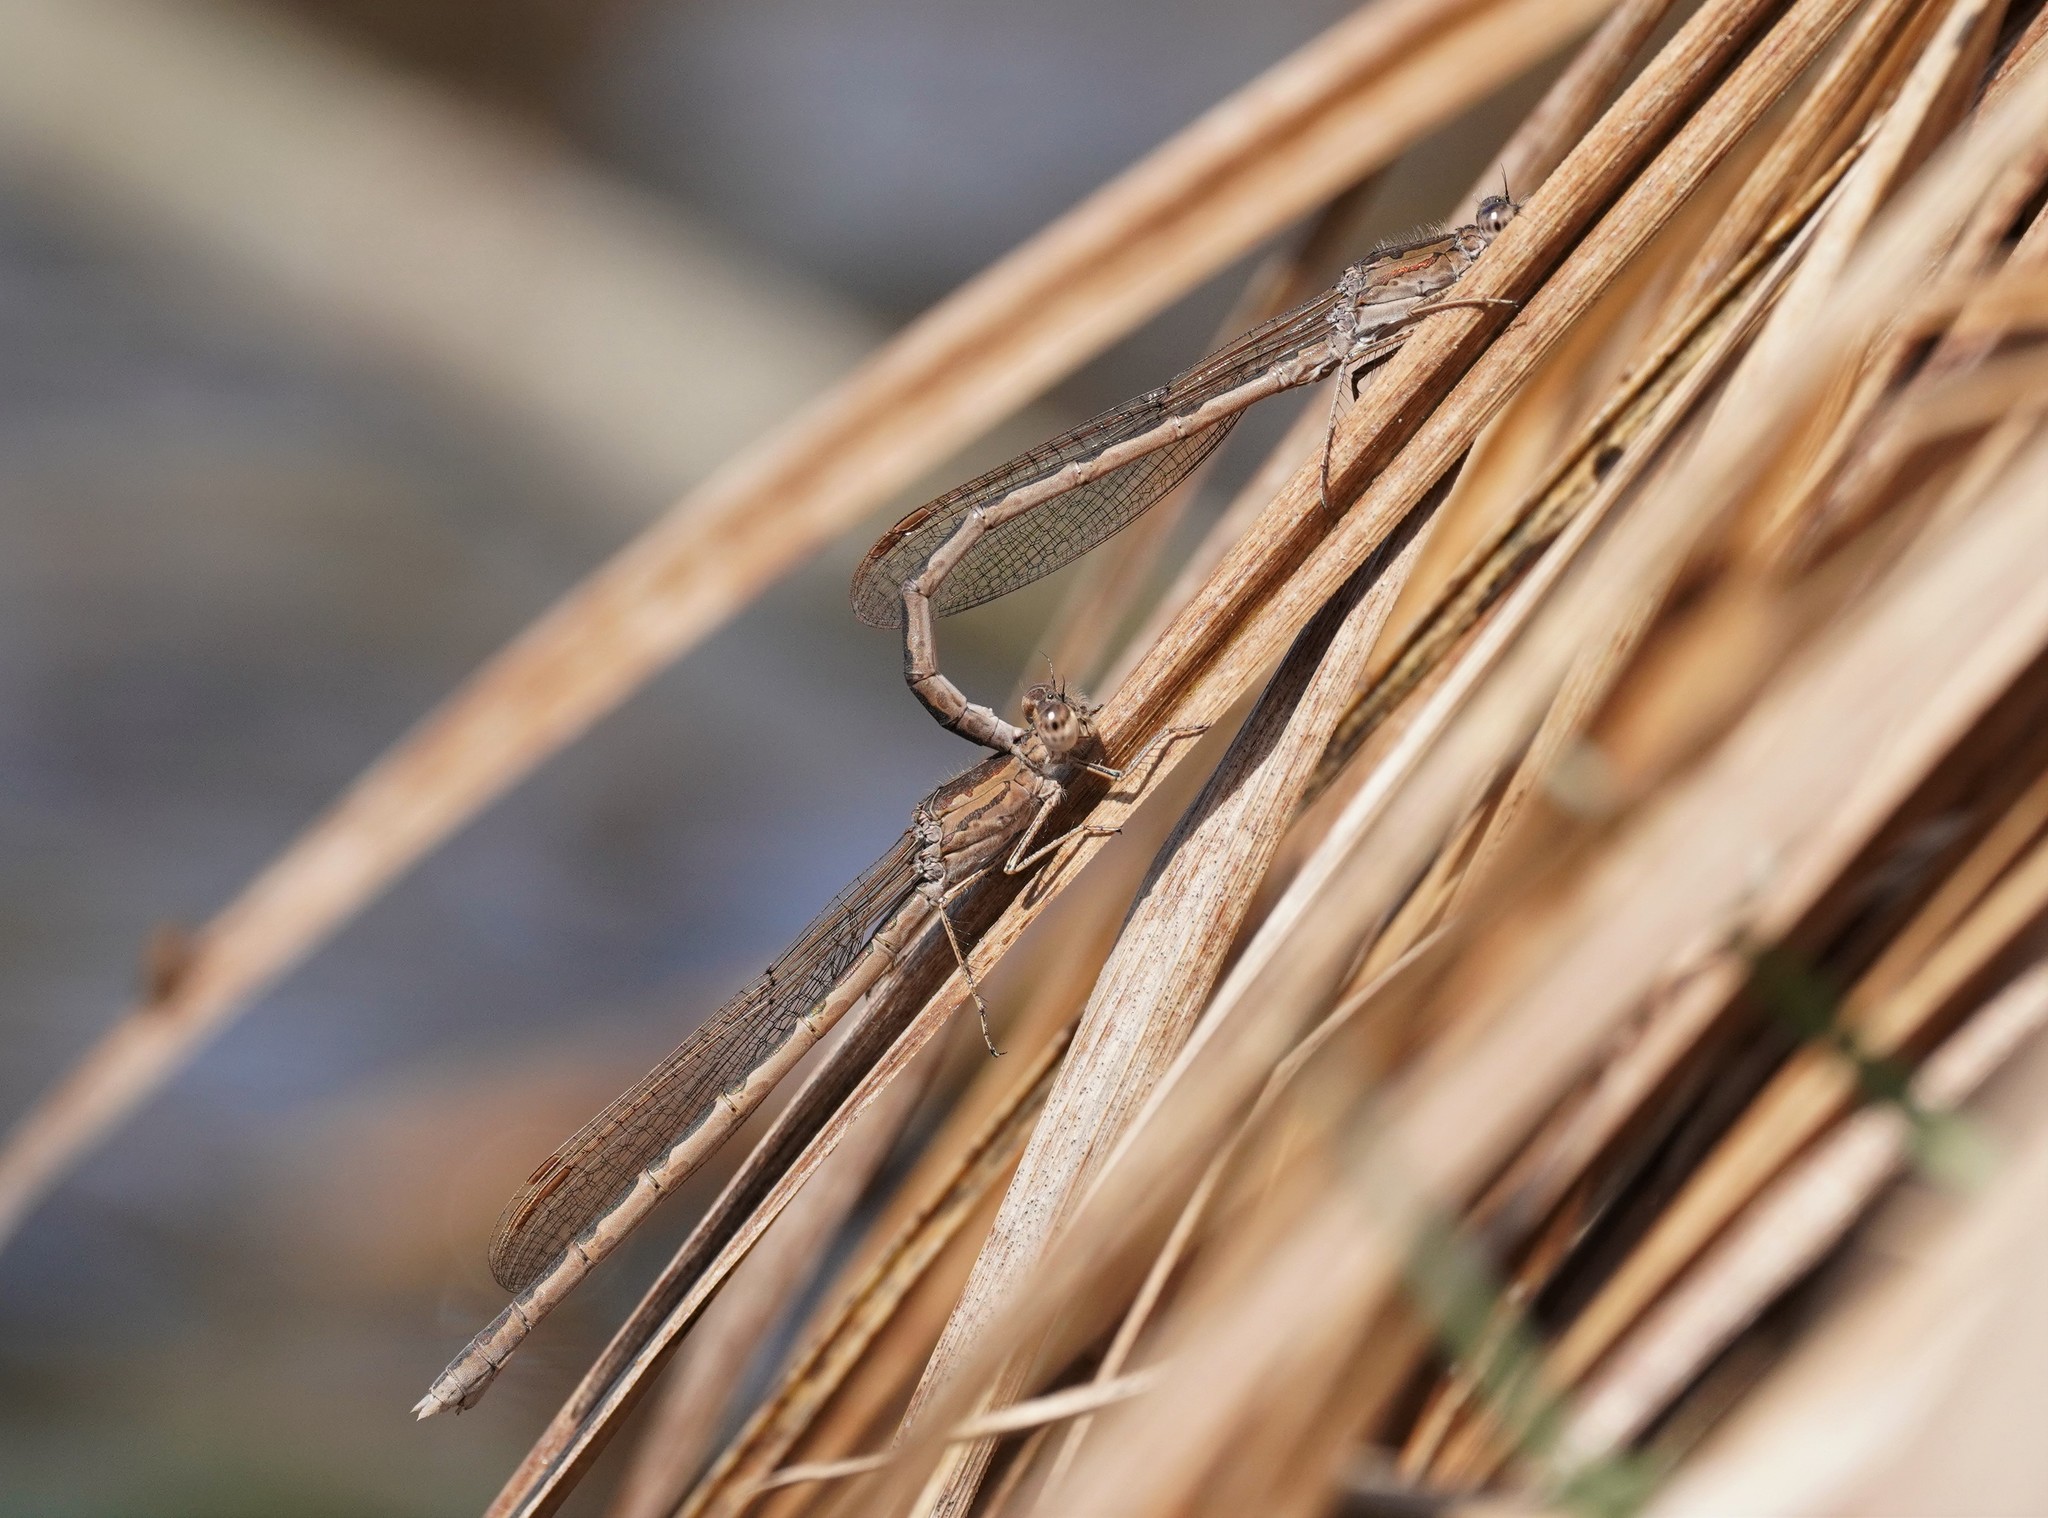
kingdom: Animalia
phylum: Arthropoda
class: Insecta
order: Odonata
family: Lestidae
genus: Sympecma
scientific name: Sympecma paedisca
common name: Siberian winter damsel
